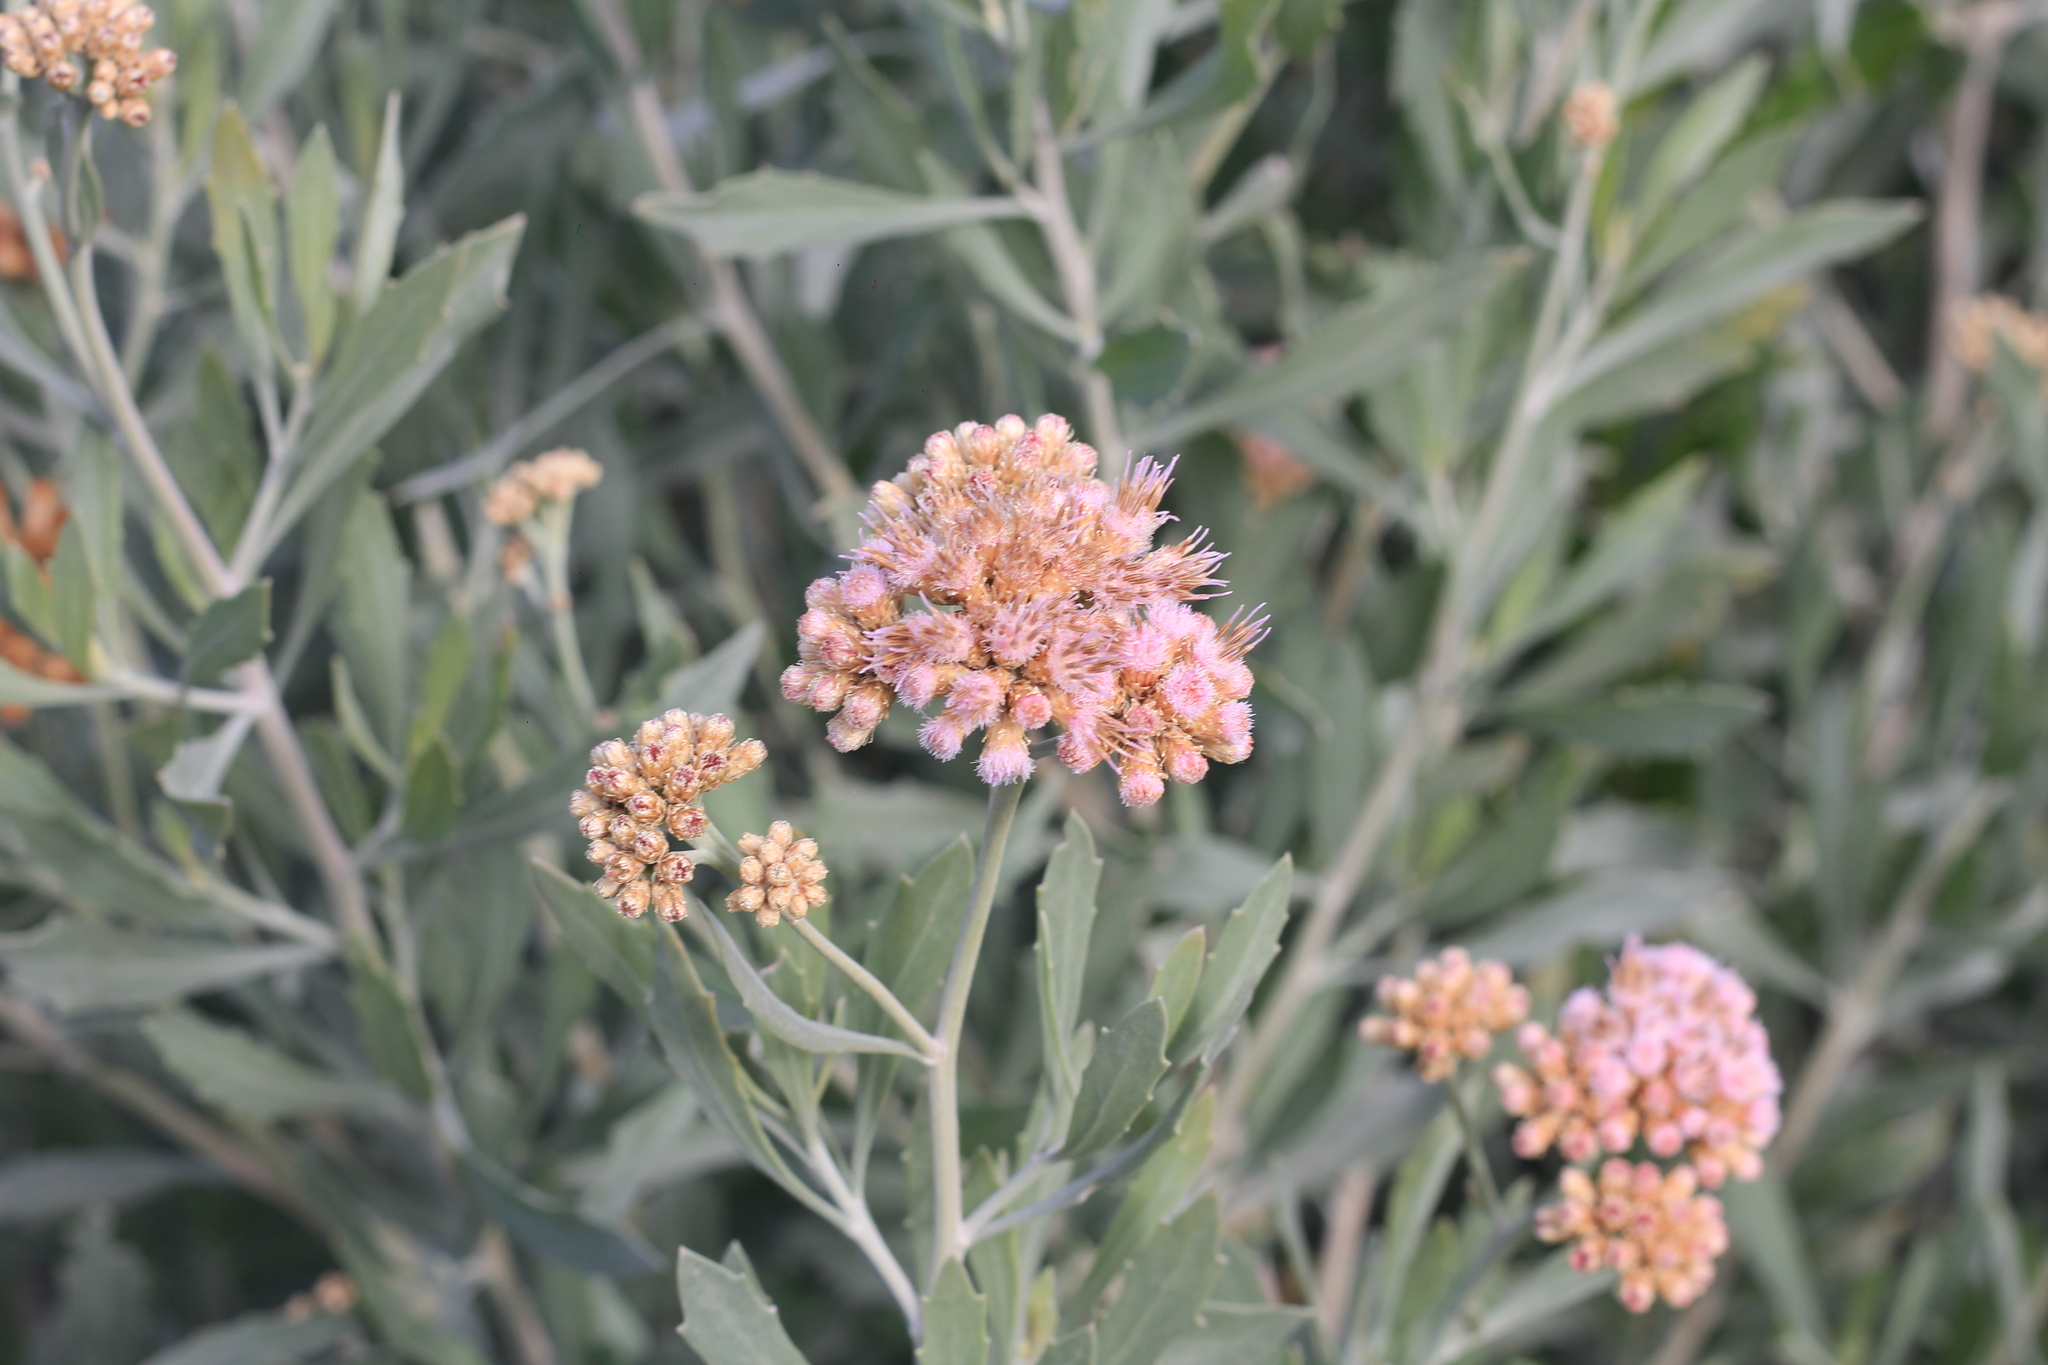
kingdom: Plantae
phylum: Tracheophyta
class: Magnoliopsida
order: Asterales
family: Asteraceae
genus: Tessaria
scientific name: Tessaria absinthioides
